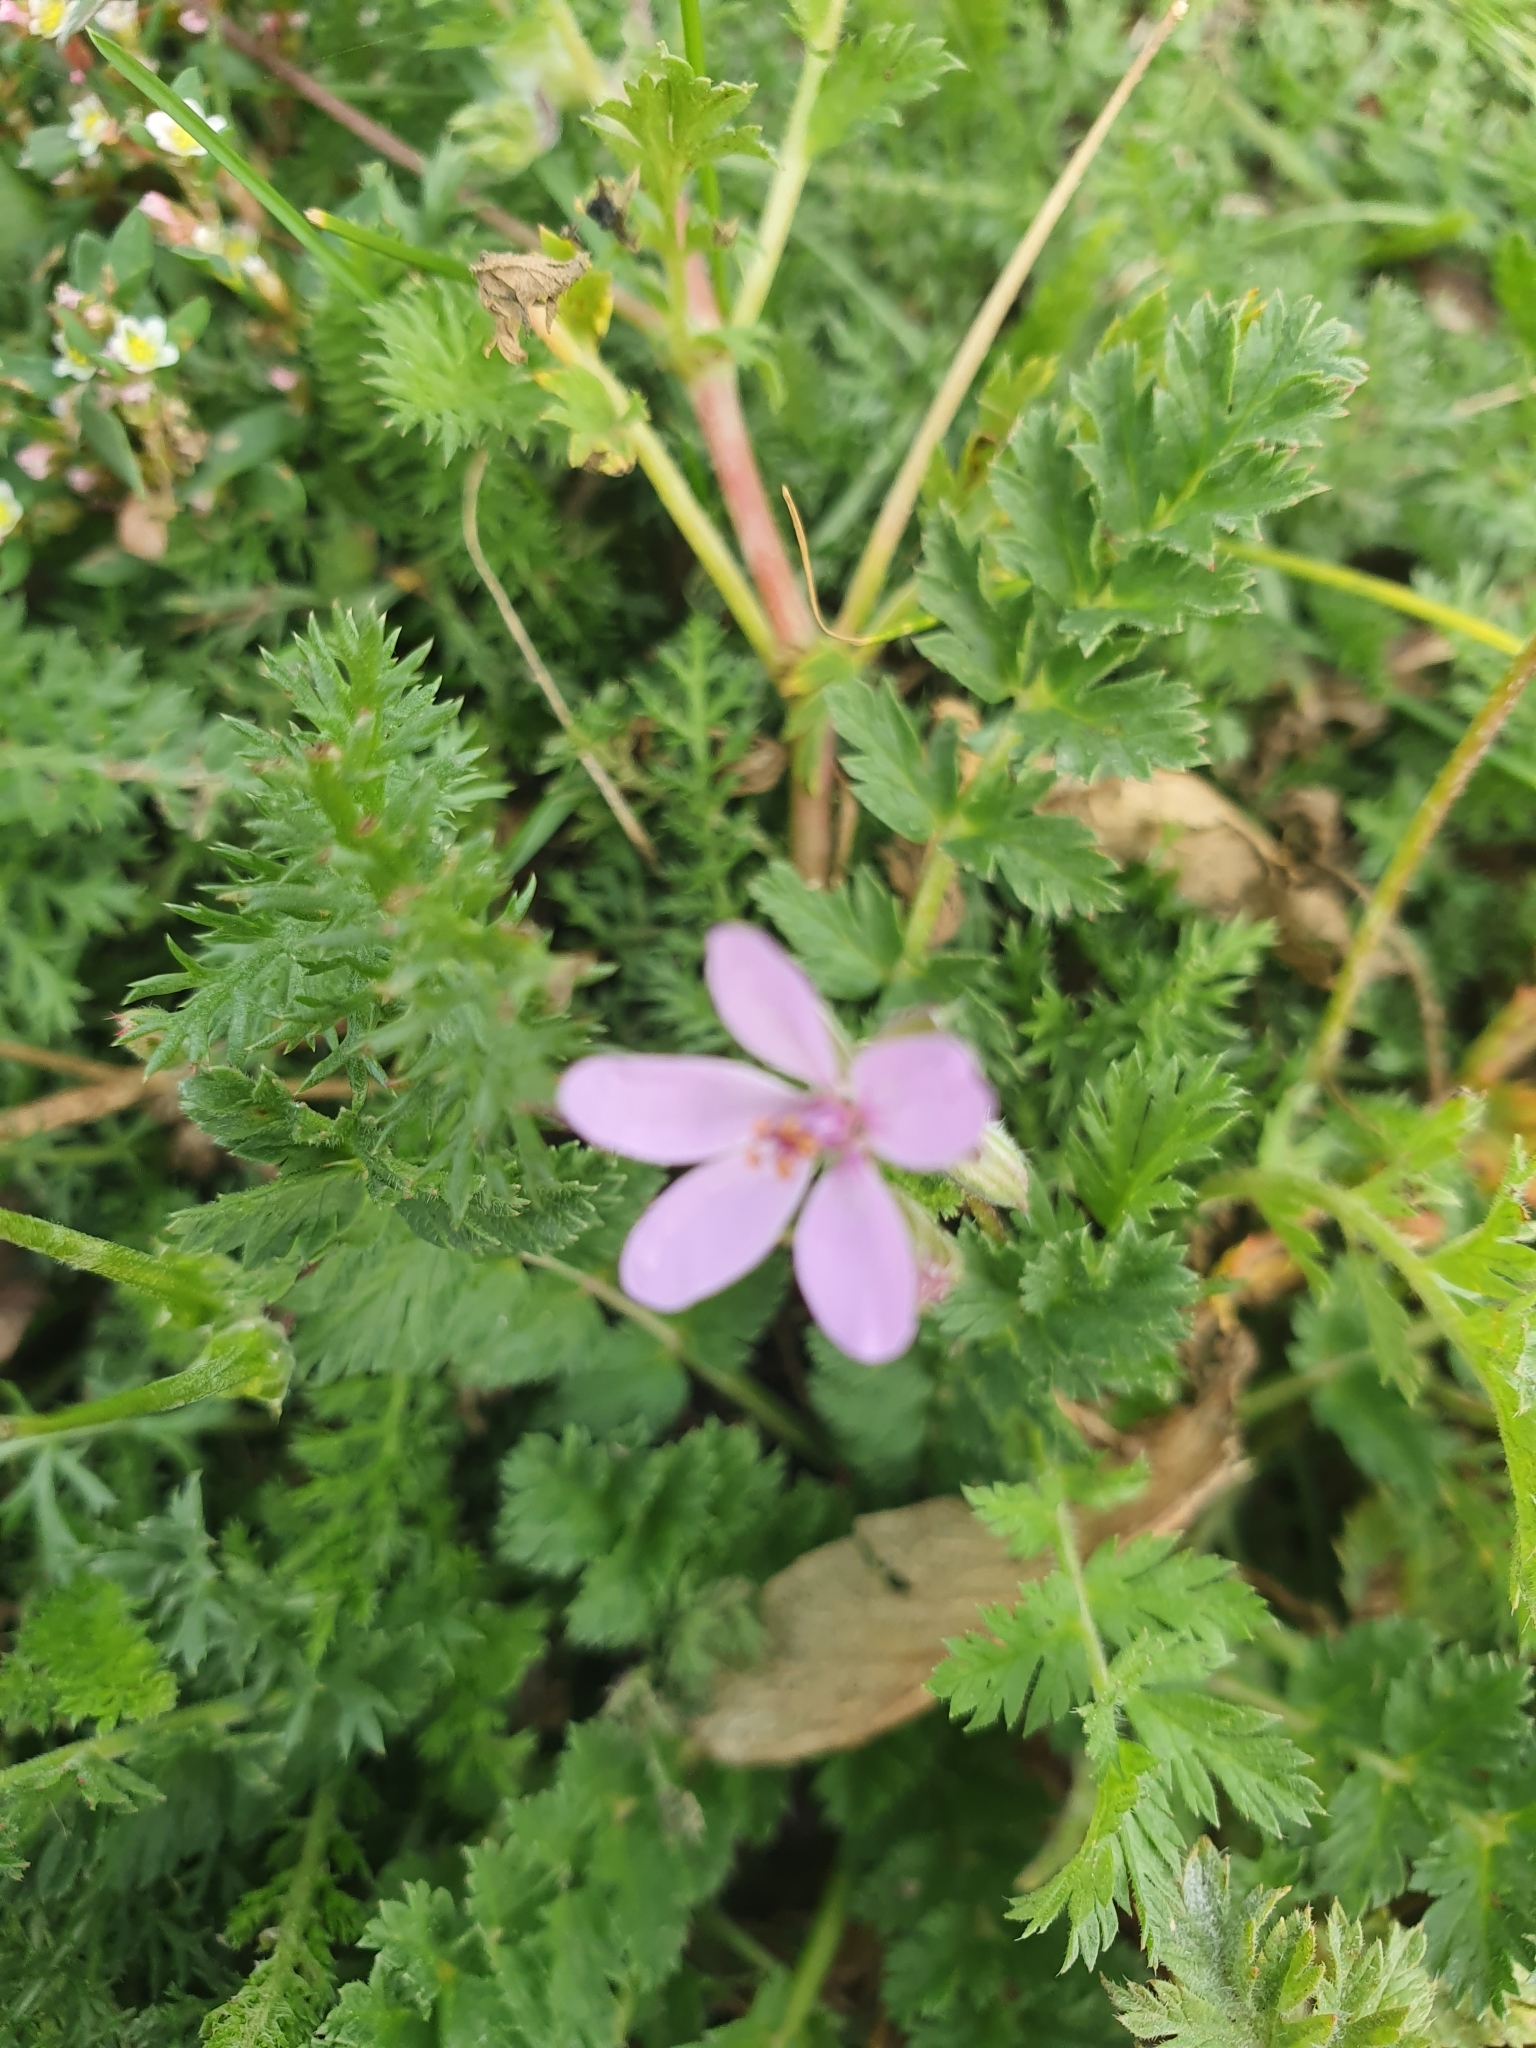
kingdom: Plantae
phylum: Tracheophyta
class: Magnoliopsida
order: Geraniales
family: Geraniaceae
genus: Erodium
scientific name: Erodium cicutarium
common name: Common stork's-bill
